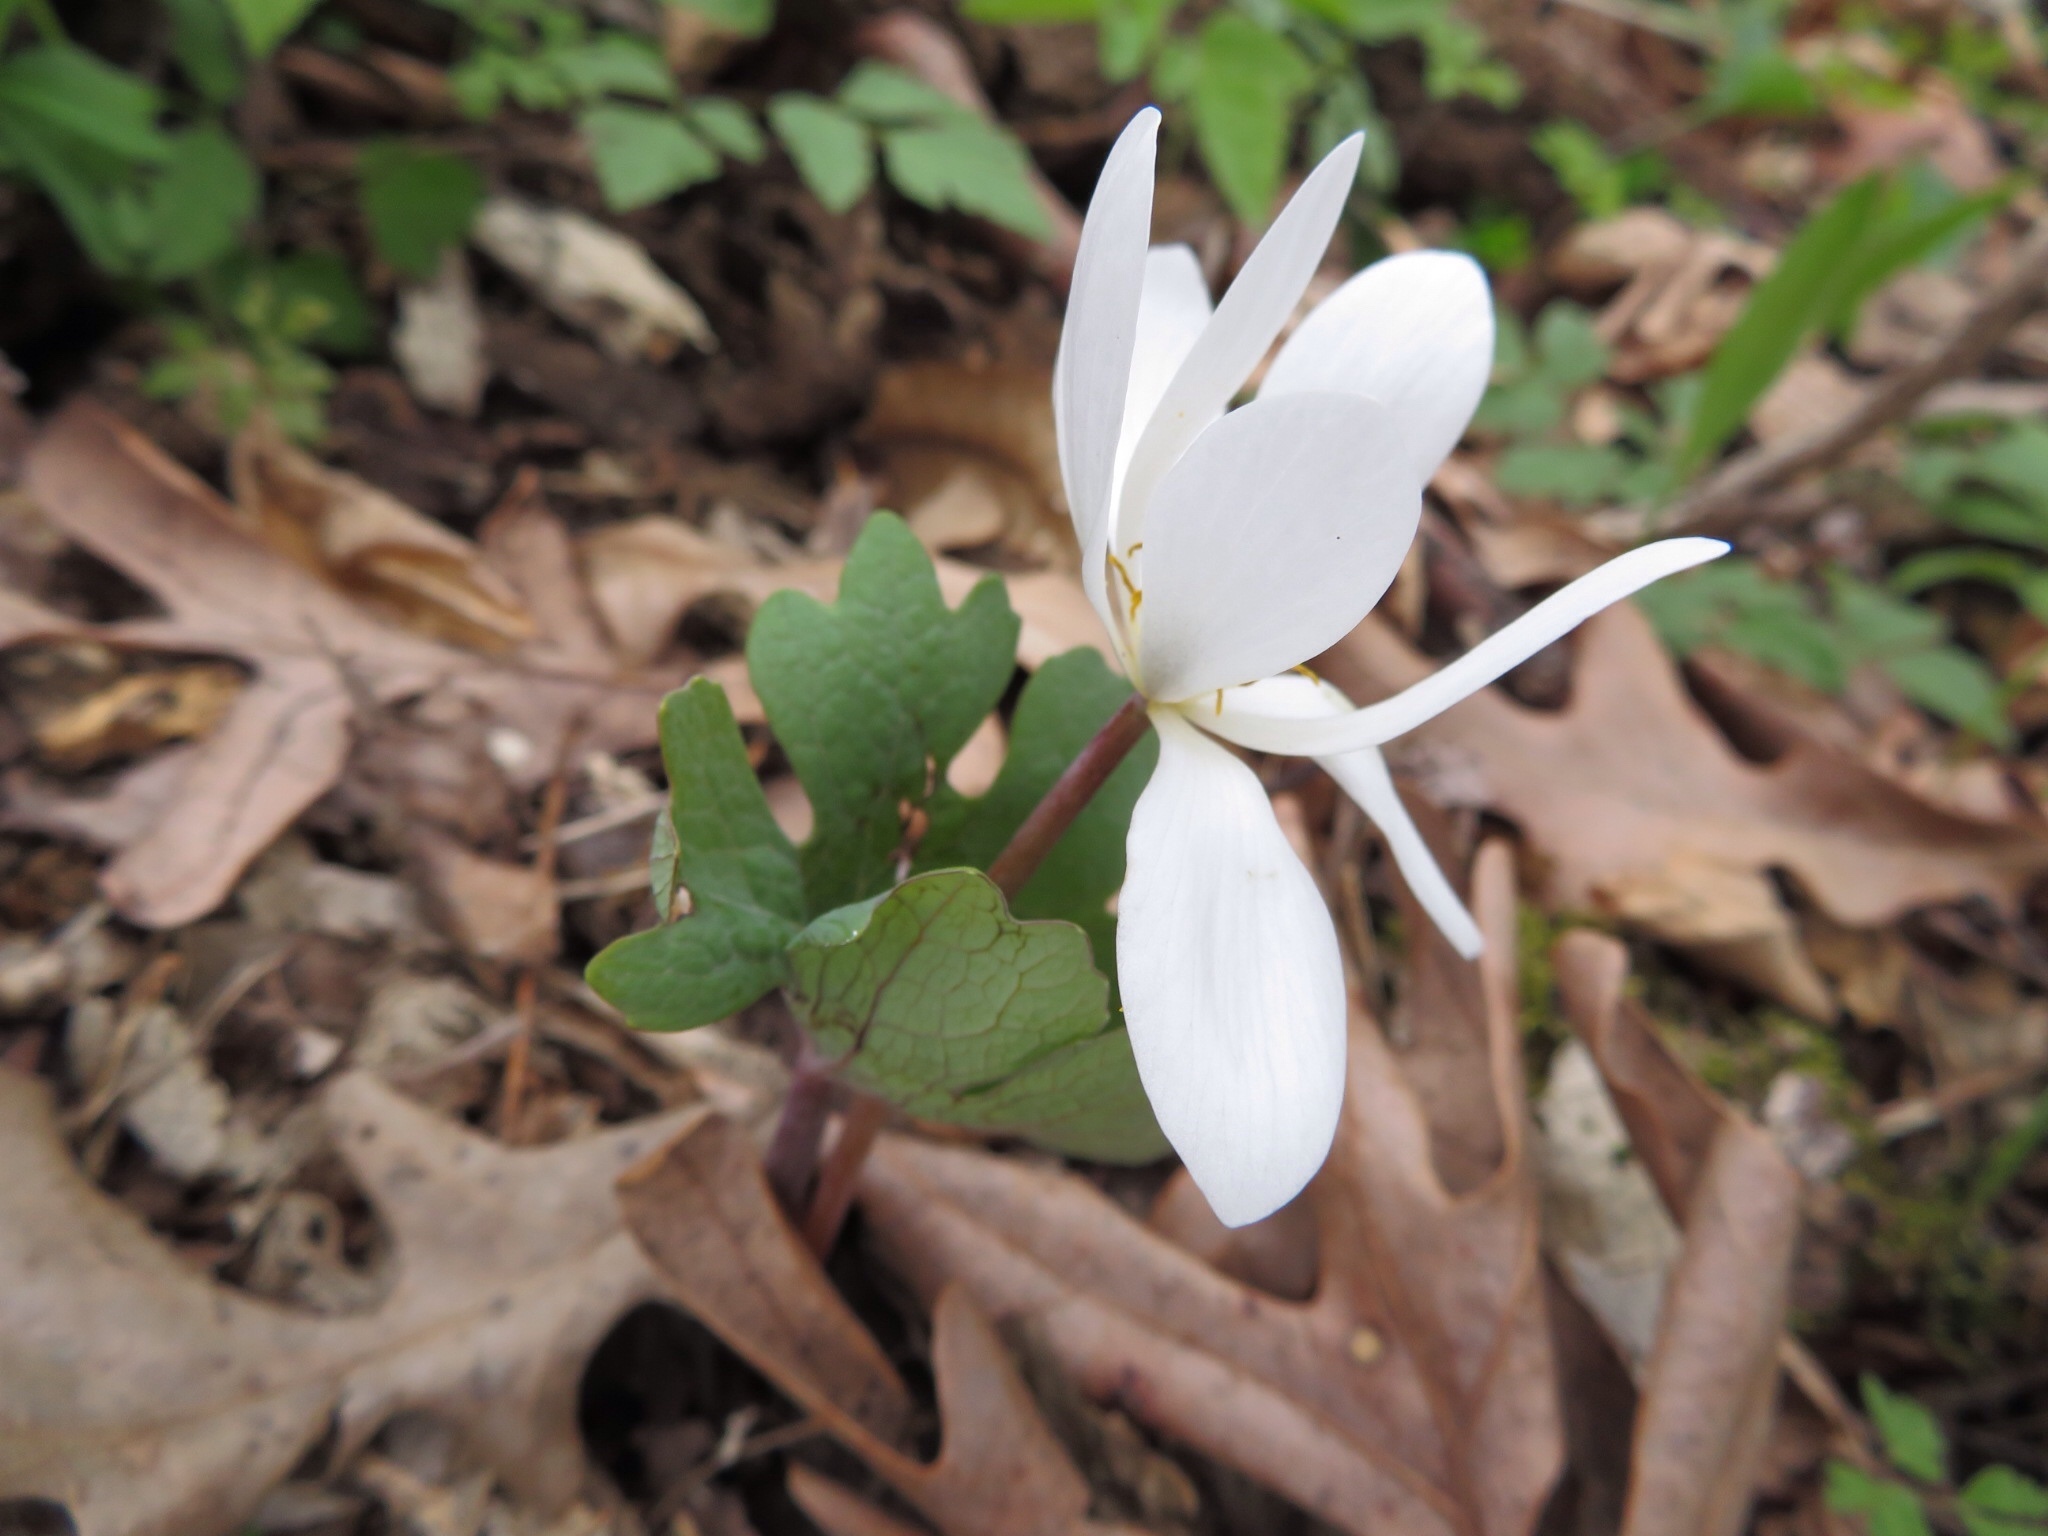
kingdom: Plantae
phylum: Tracheophyta
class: Magnoliopsida
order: Ranunculales
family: Papaveraceae
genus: Sanguinaria
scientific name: Sanguinaria canadensis
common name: Bloodroot
